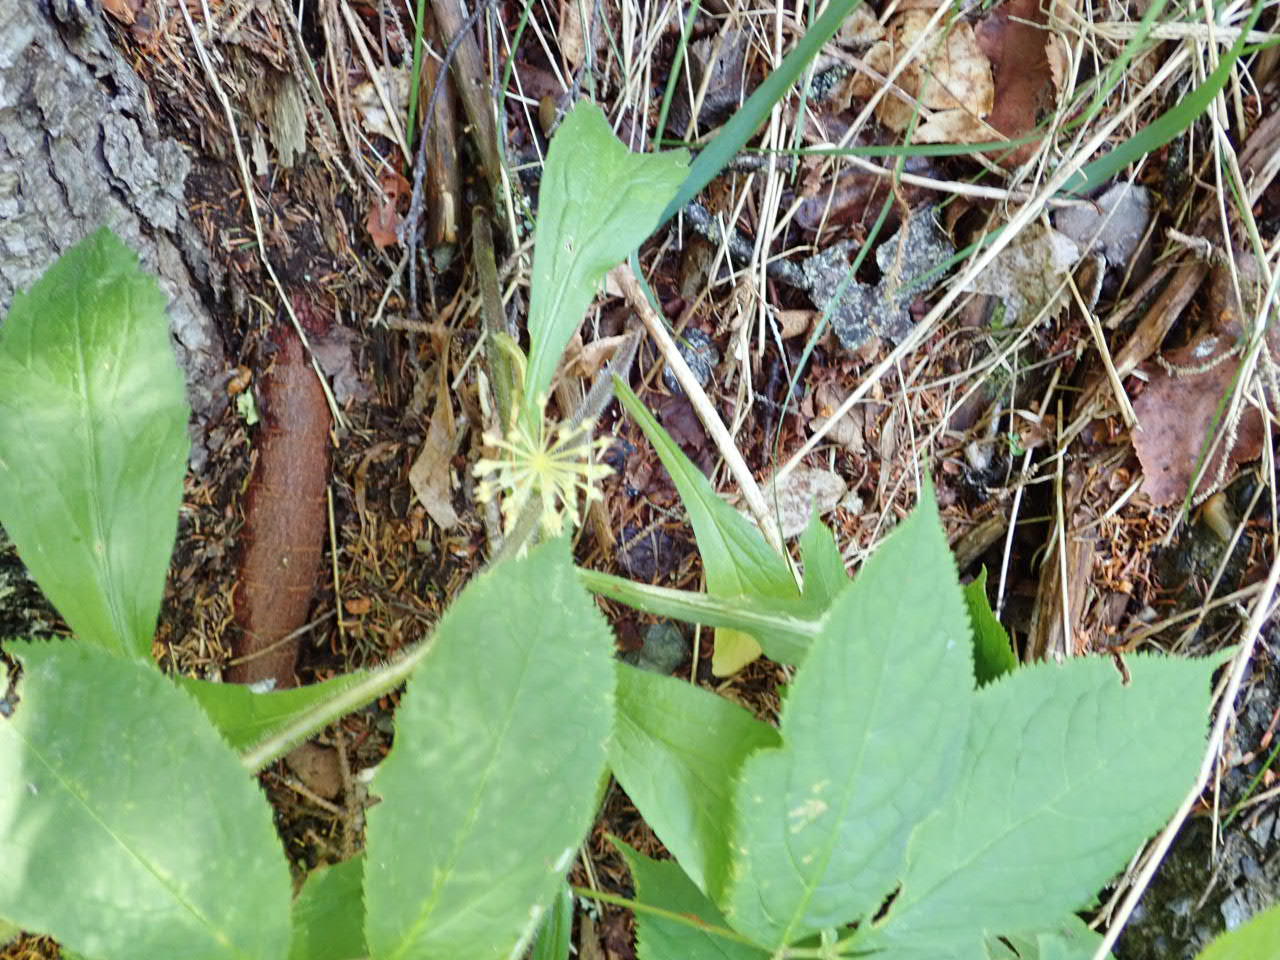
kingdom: Plantae
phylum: Tracheophyta
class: Magnoliopsida
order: Apiales
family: Araliaceae
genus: Aralia
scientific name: Aralia nudicaulis
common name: Wild sarsaparilla
